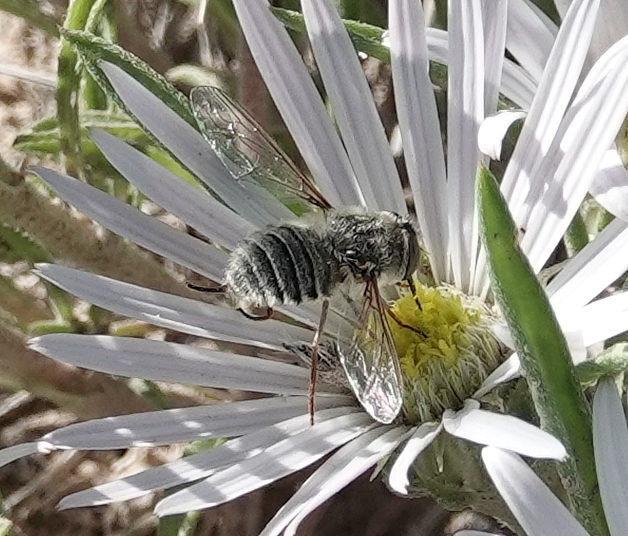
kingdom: Animalia
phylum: Arthropoda
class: Insecta
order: Diptera
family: Nemestrinidae
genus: Neorhynchocephalus
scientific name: Neorhynchocephalus sackenii
